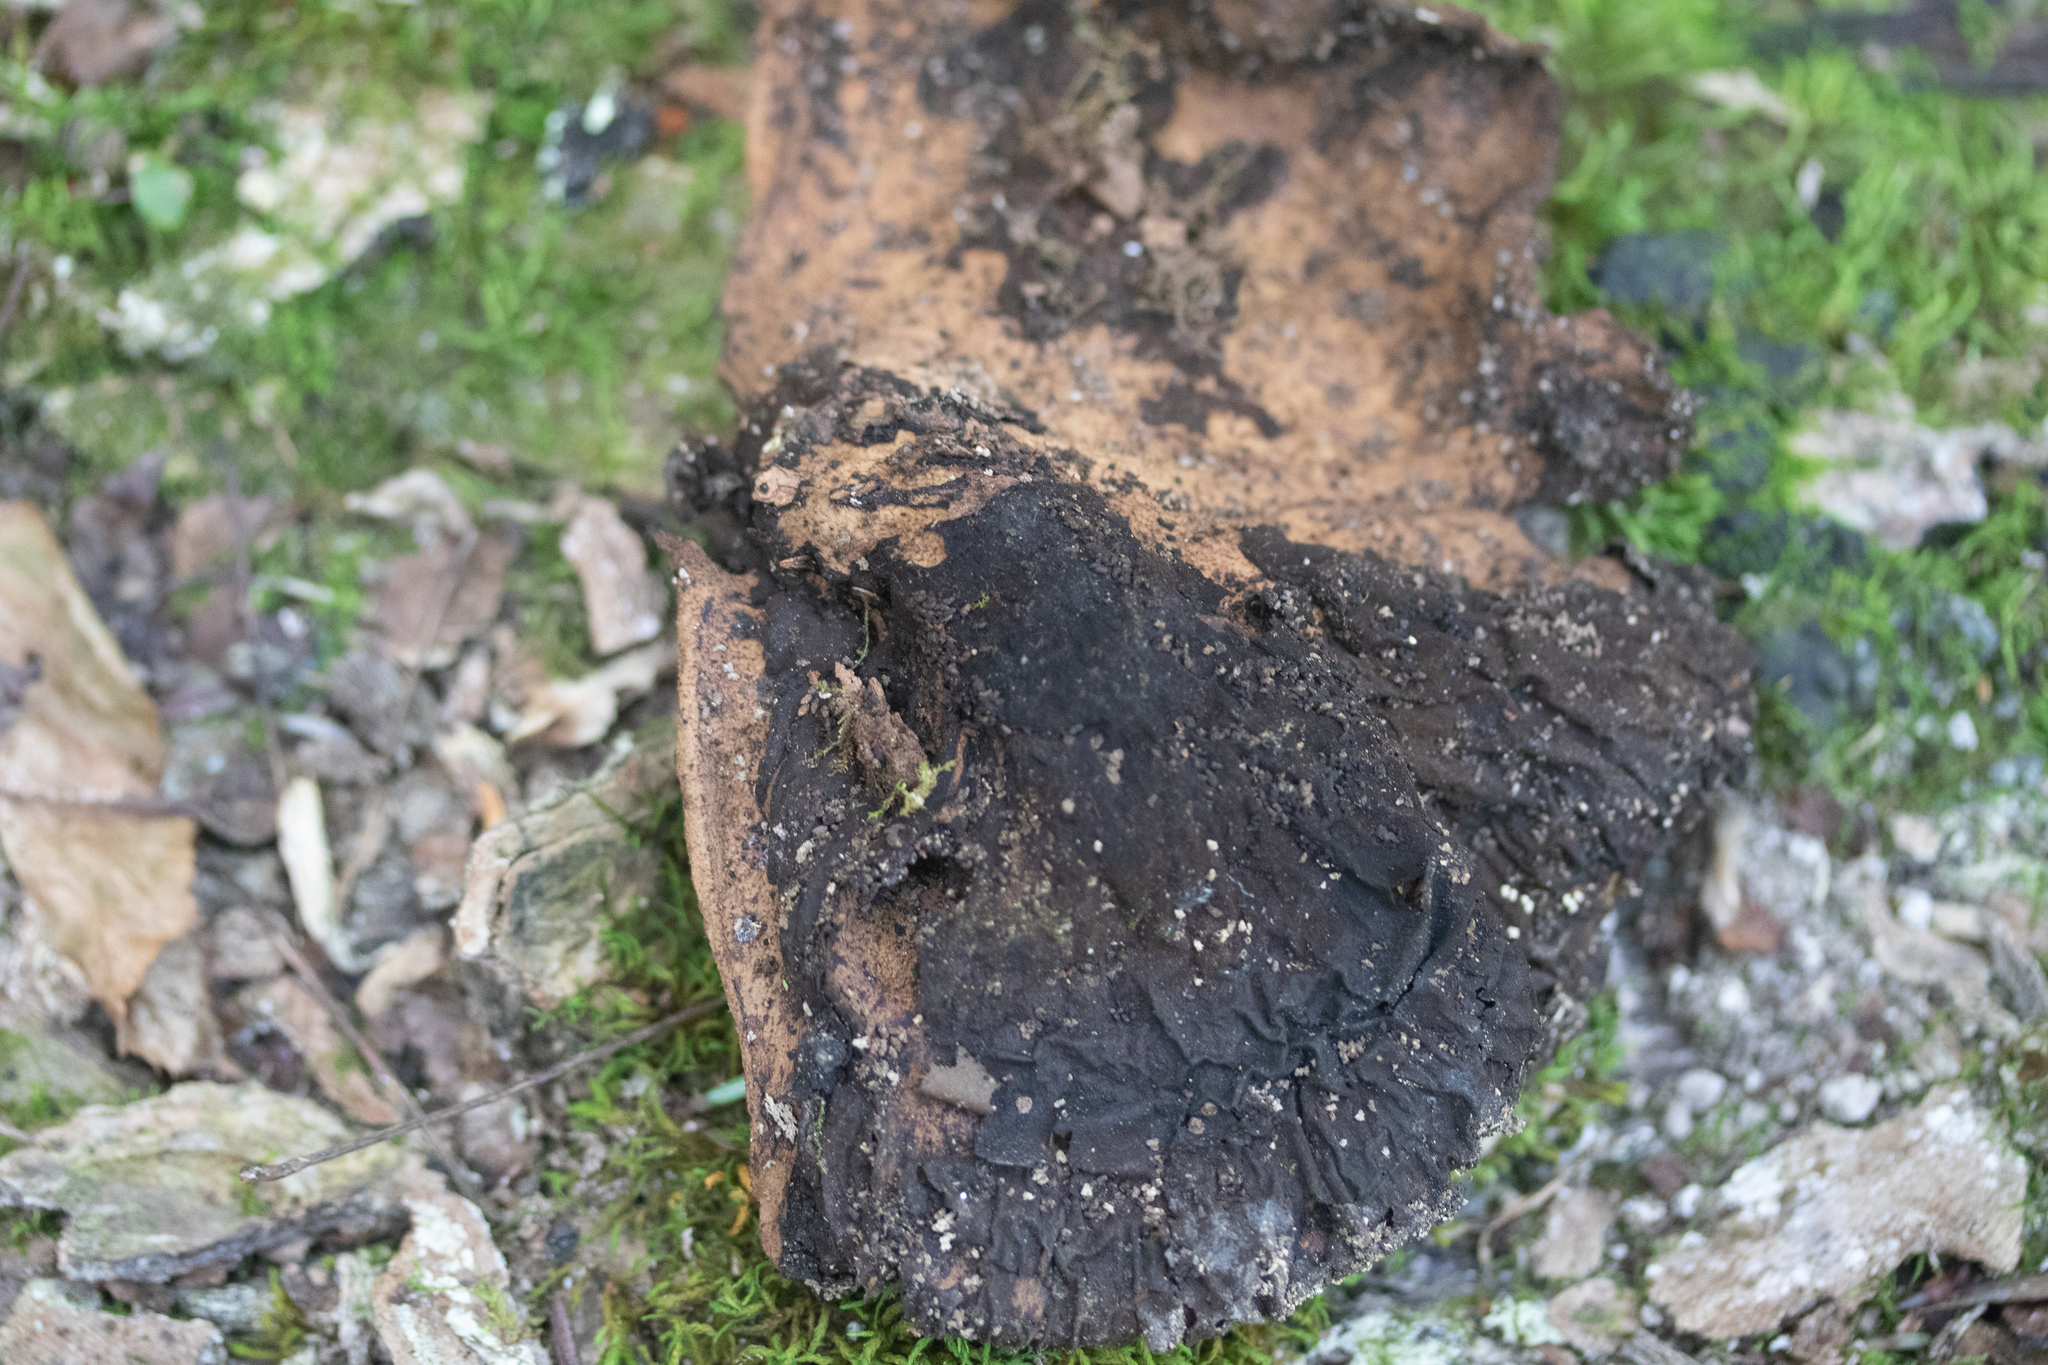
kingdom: Fungi
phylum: Basidiomycota
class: Agaricomycetes
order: Polyporales
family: Polyporaceae
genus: Cerioporus
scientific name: Cerioporus squamosus
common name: Dryad's saddle
